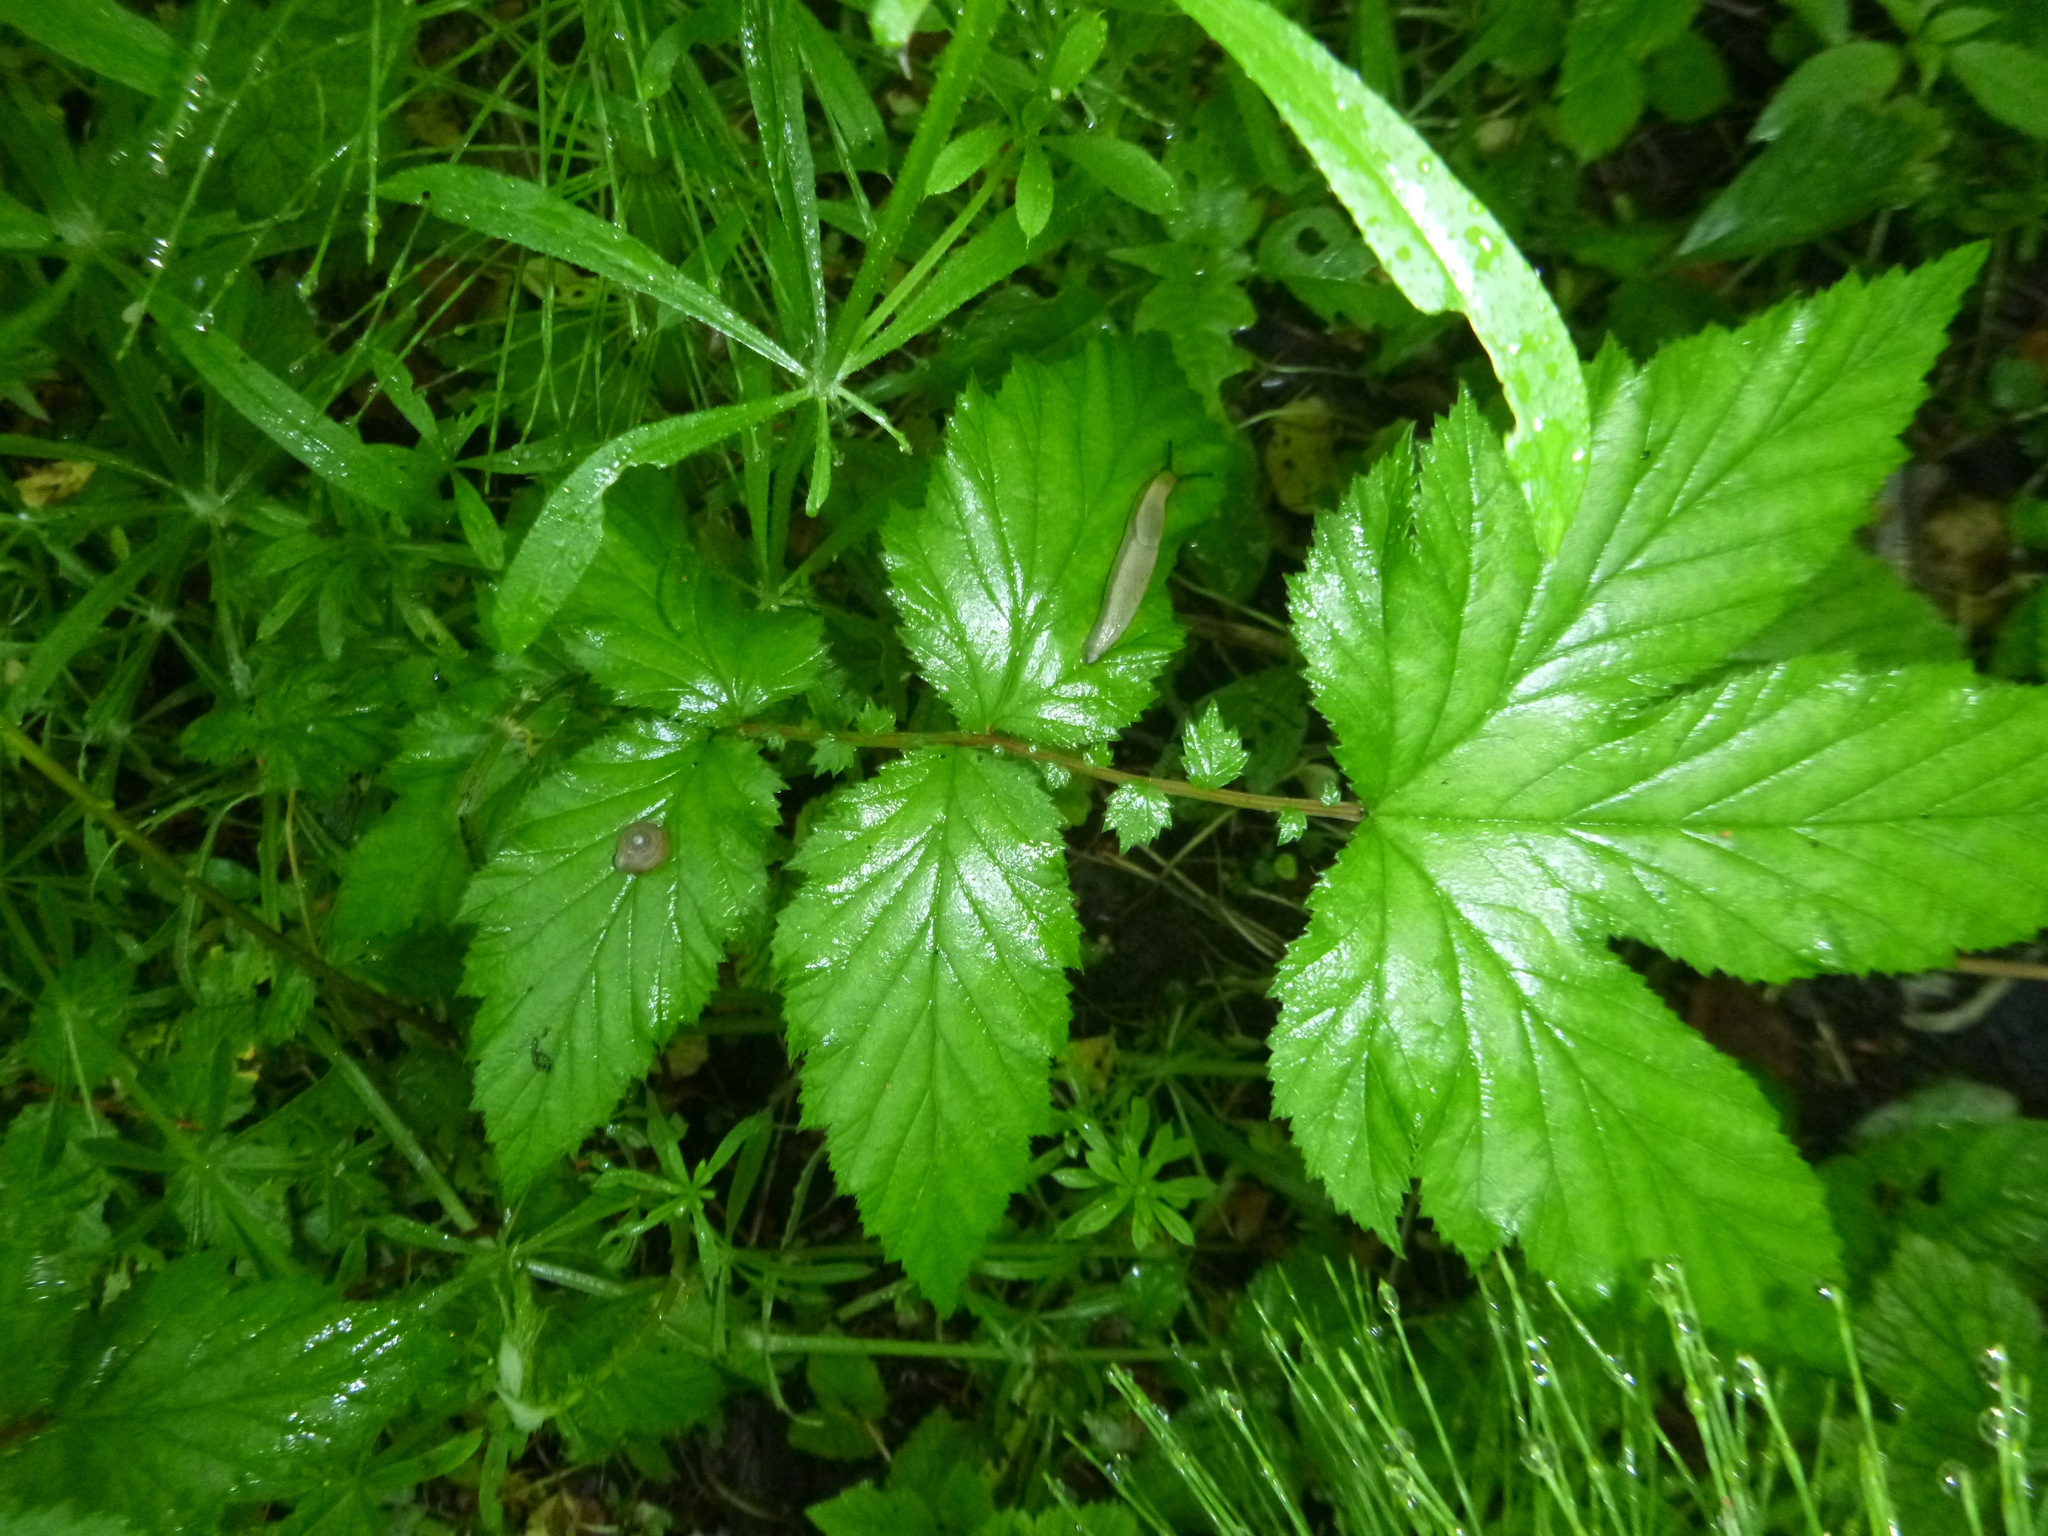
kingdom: Plantae
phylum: Tracheophyta
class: Magnoliopsida
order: Rosales
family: Rosaceae
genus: Filipendula
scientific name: Filipendula ulmaria
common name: Meadowsweet
